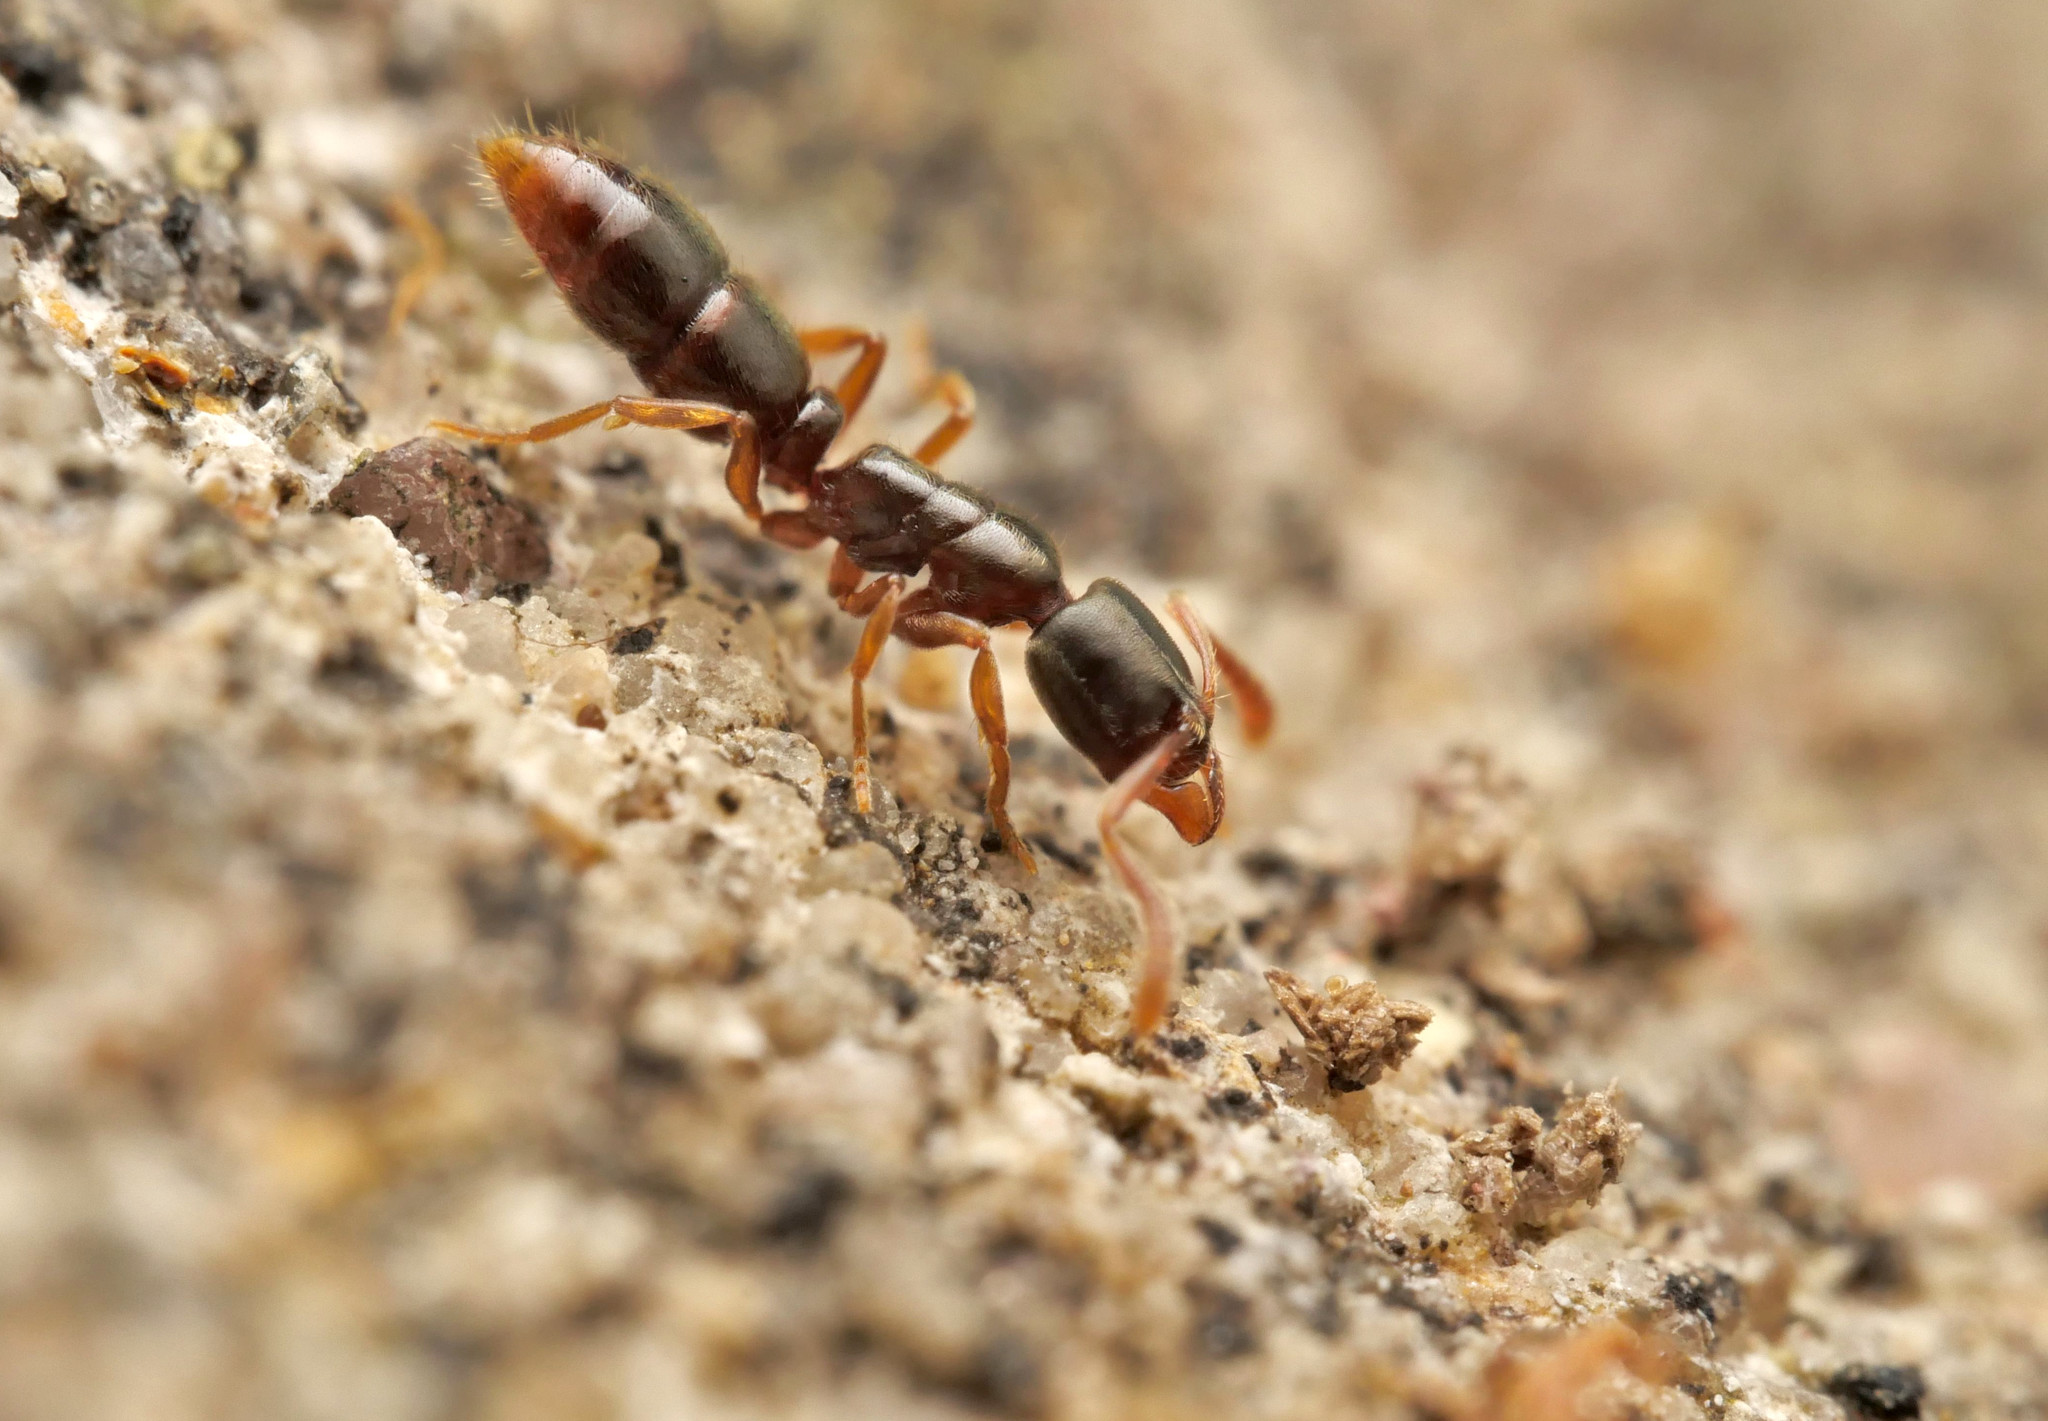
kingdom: Animalia
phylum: Arthropoda
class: Insecta
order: Hymenoptera
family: Formicidae
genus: Ponera
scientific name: Ponera coarctata
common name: Indolent ant
